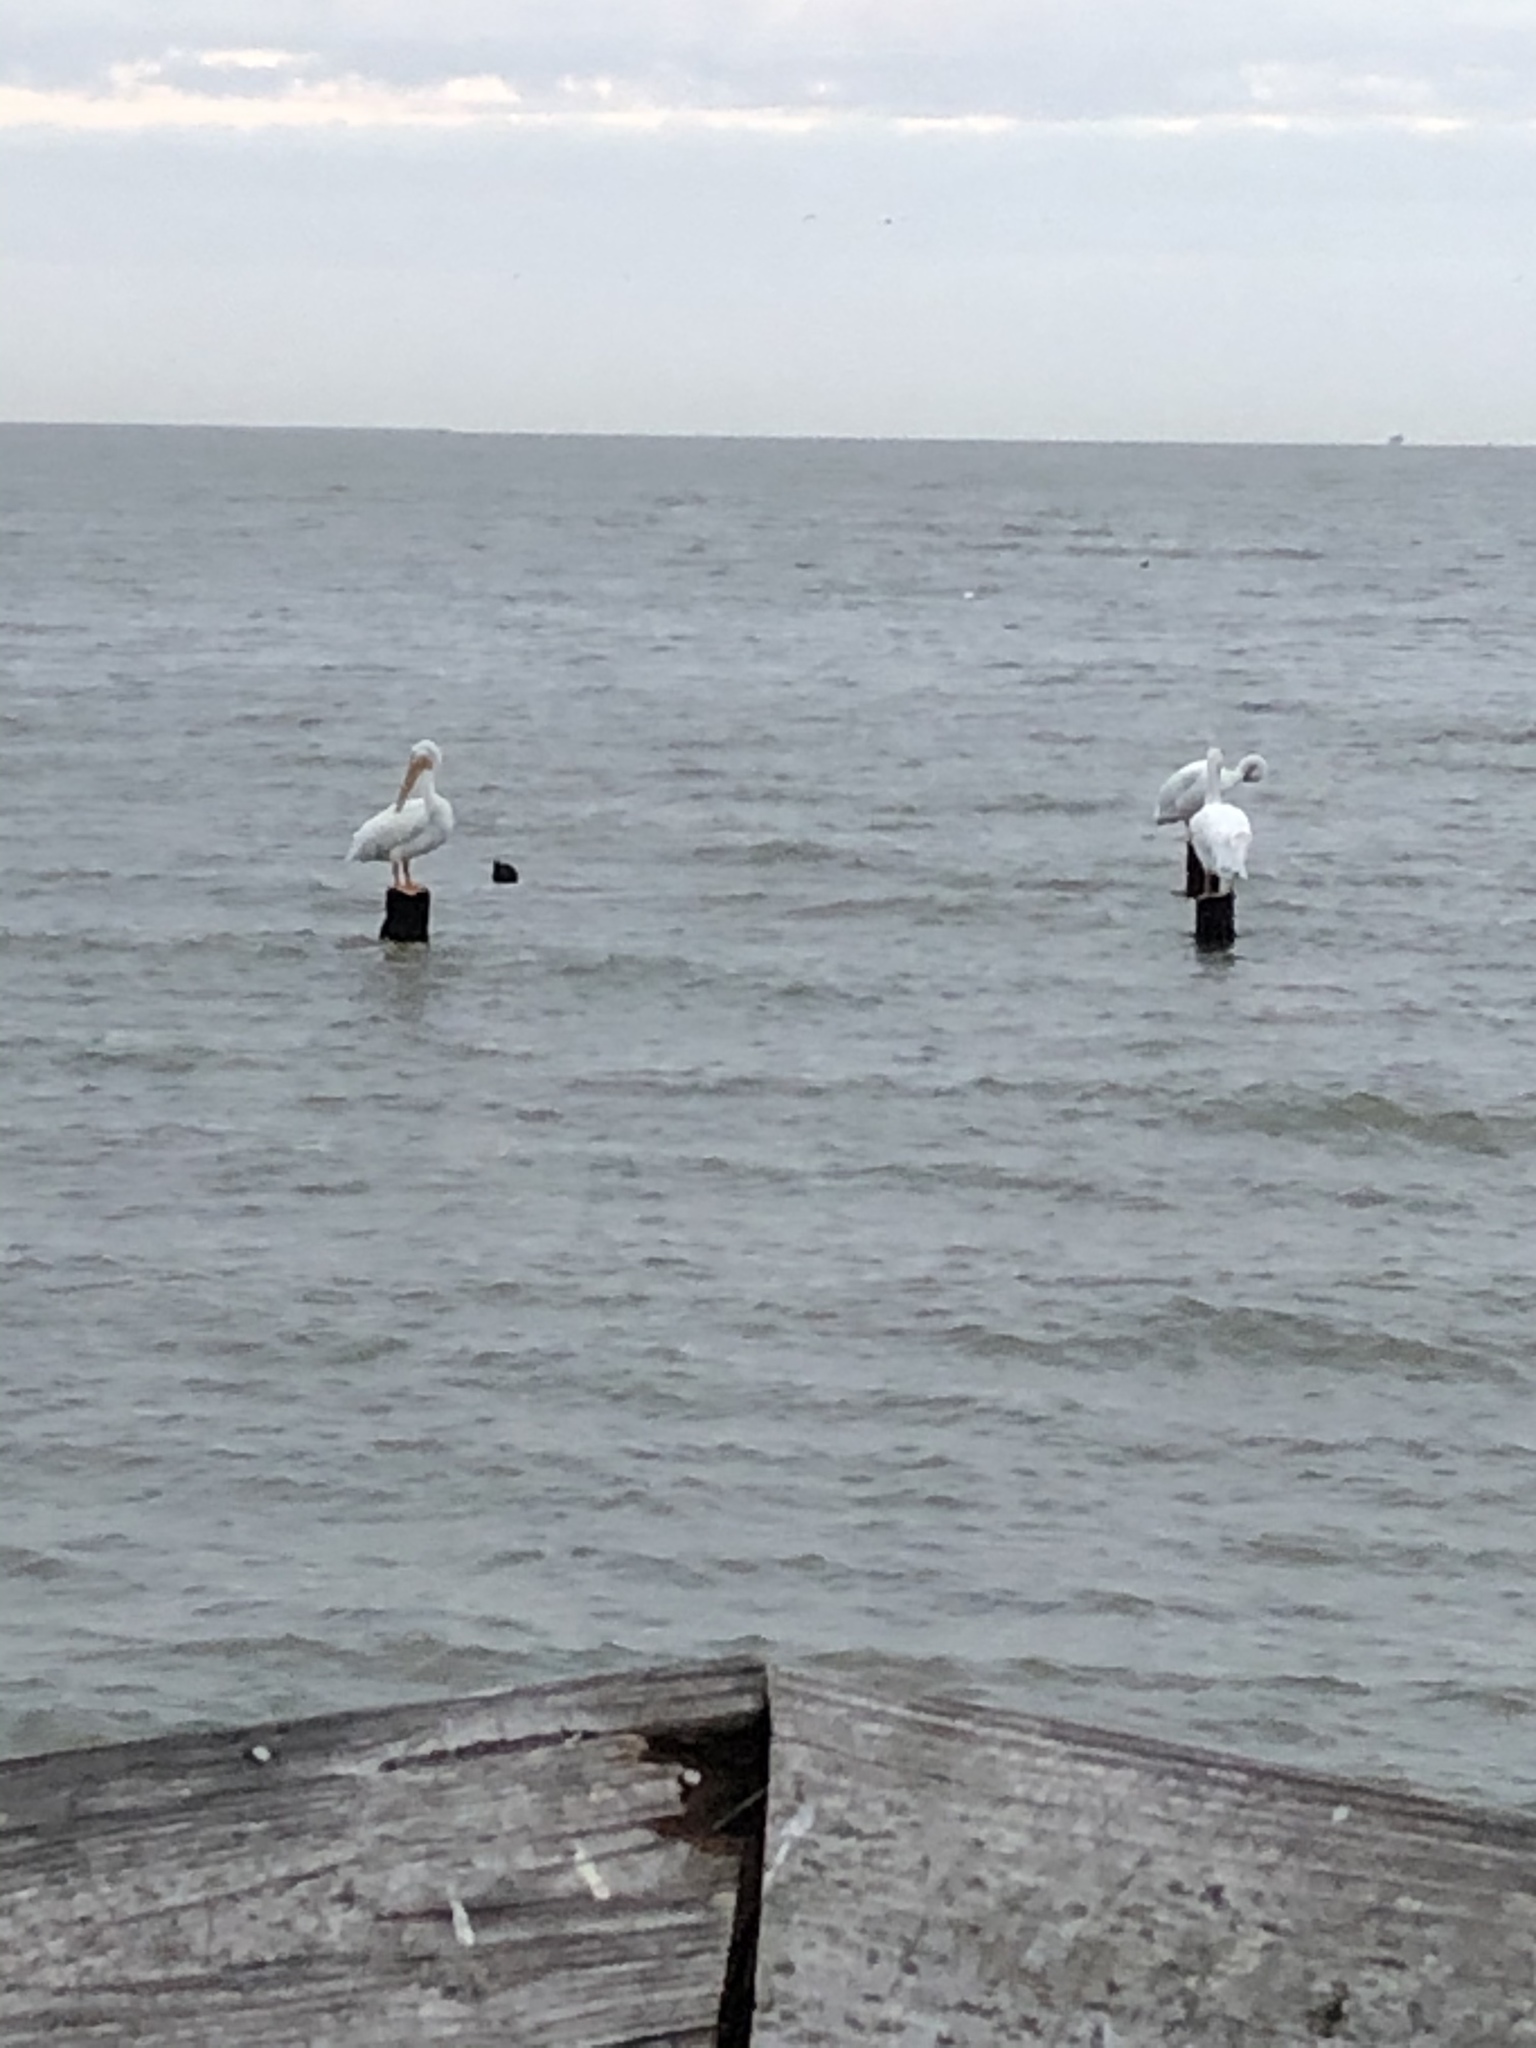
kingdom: Animalia
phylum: Chordata
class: Aves
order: Pelecaniformes
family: Pelecanidae
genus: Pelecanus
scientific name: Pelecanus erythrorhynchos
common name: American white pelican
